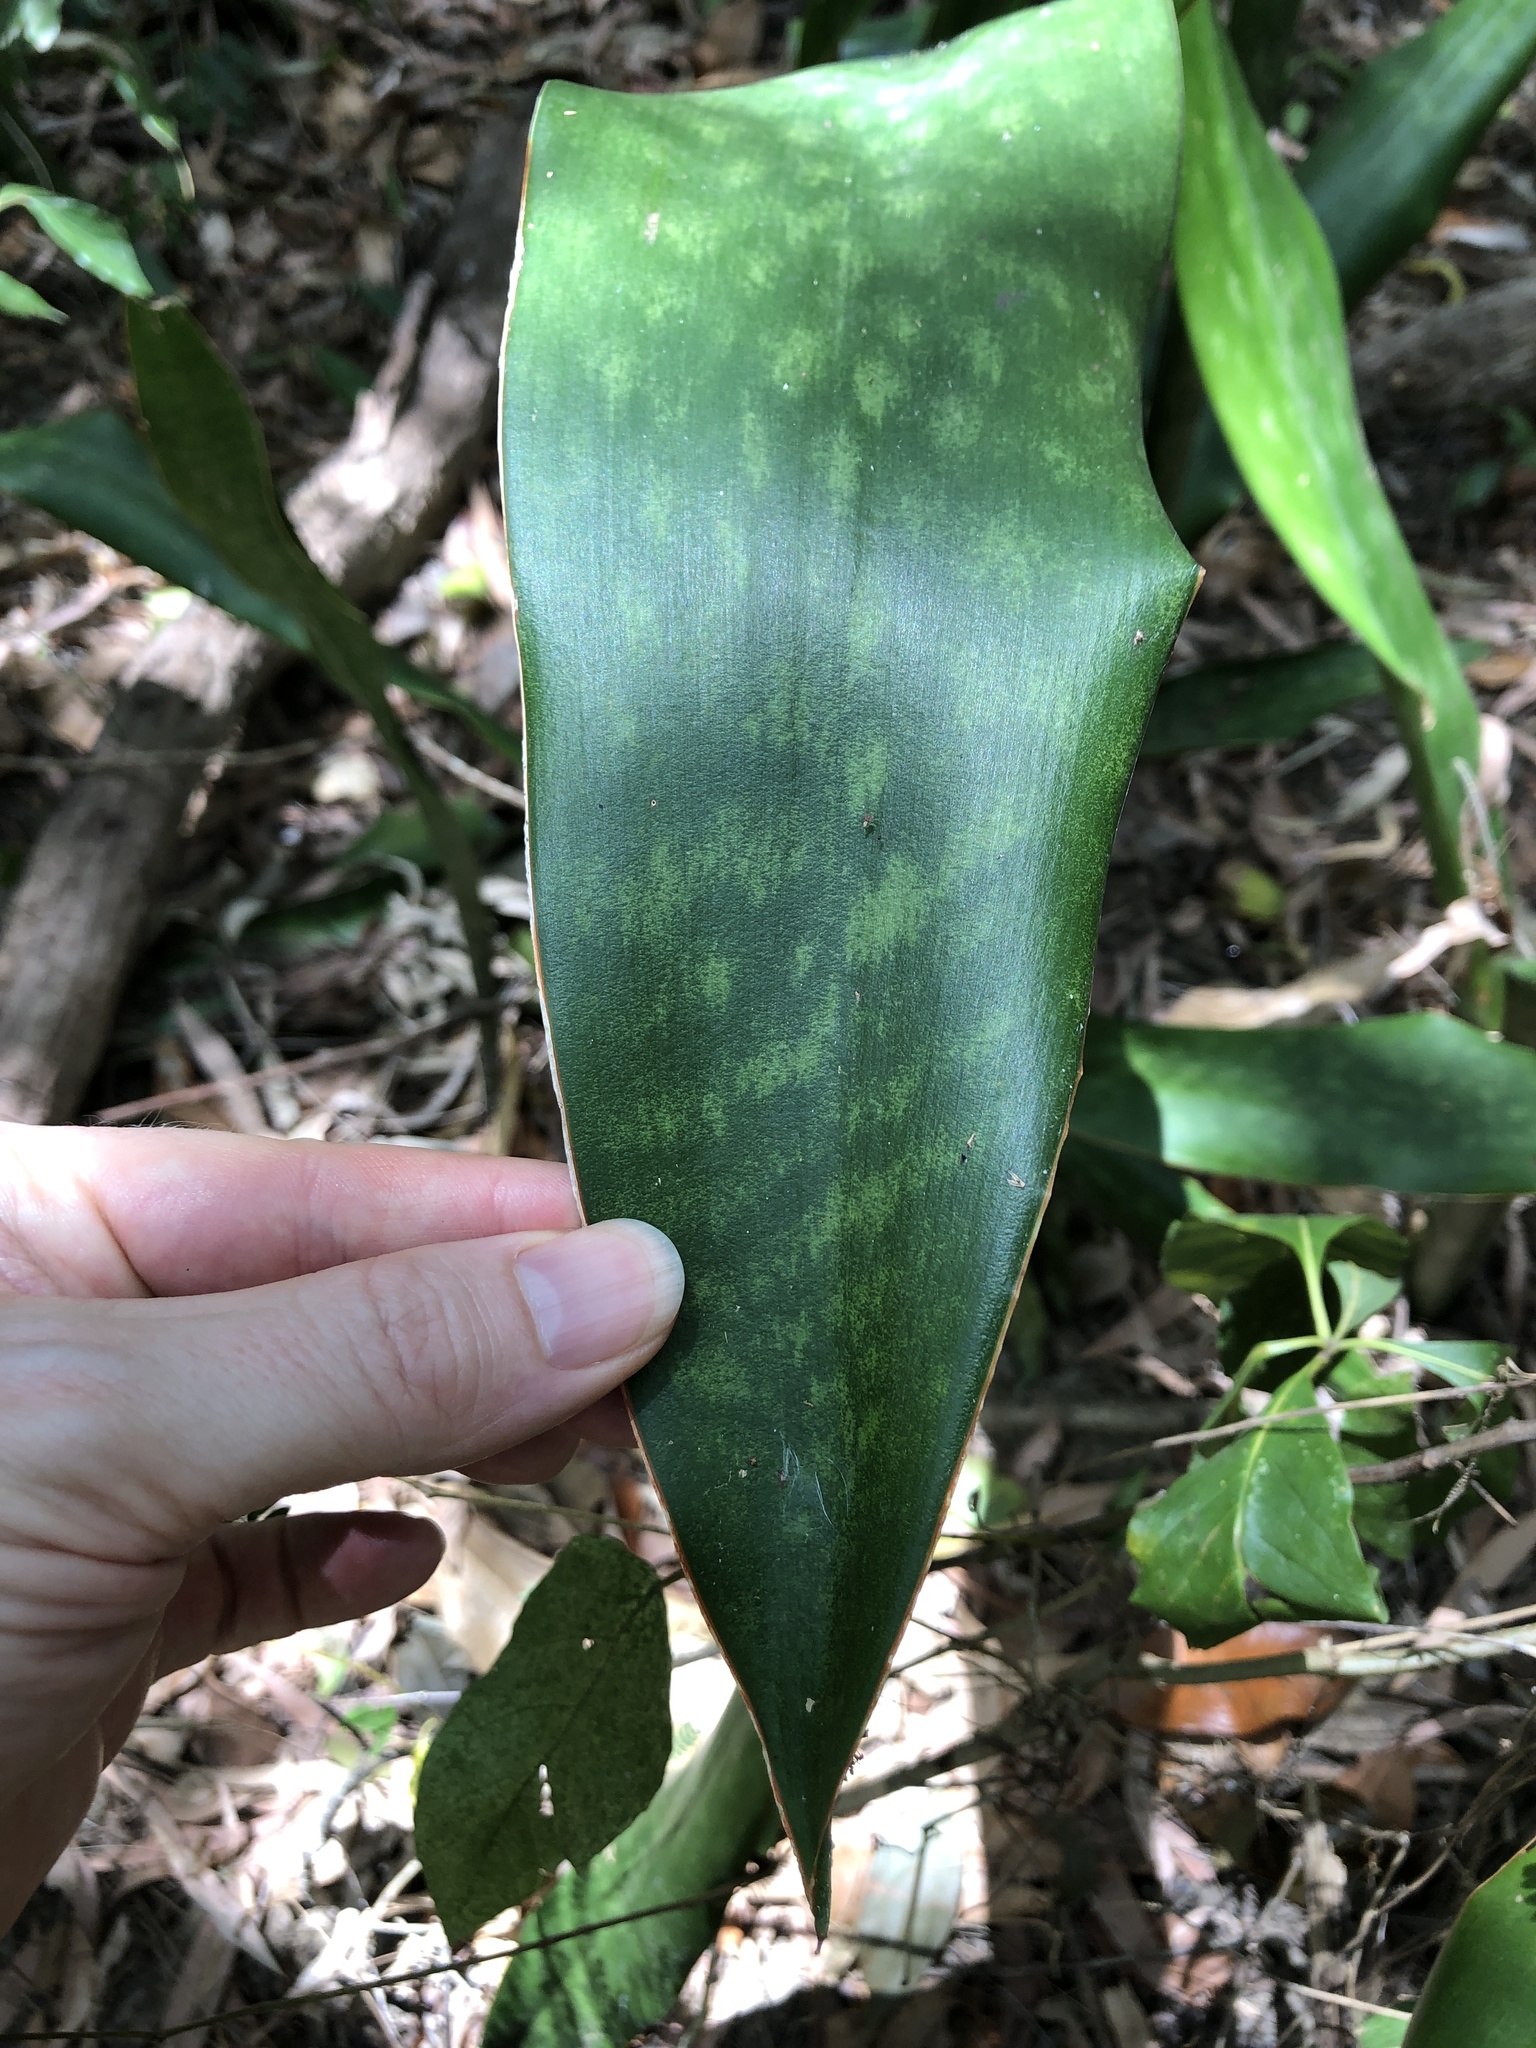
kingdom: Plantae
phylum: Tracheophyta
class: Liliopsida
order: Asparagales
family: Asparagaceae
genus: Dracaena
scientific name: Dracaena trifasciata
